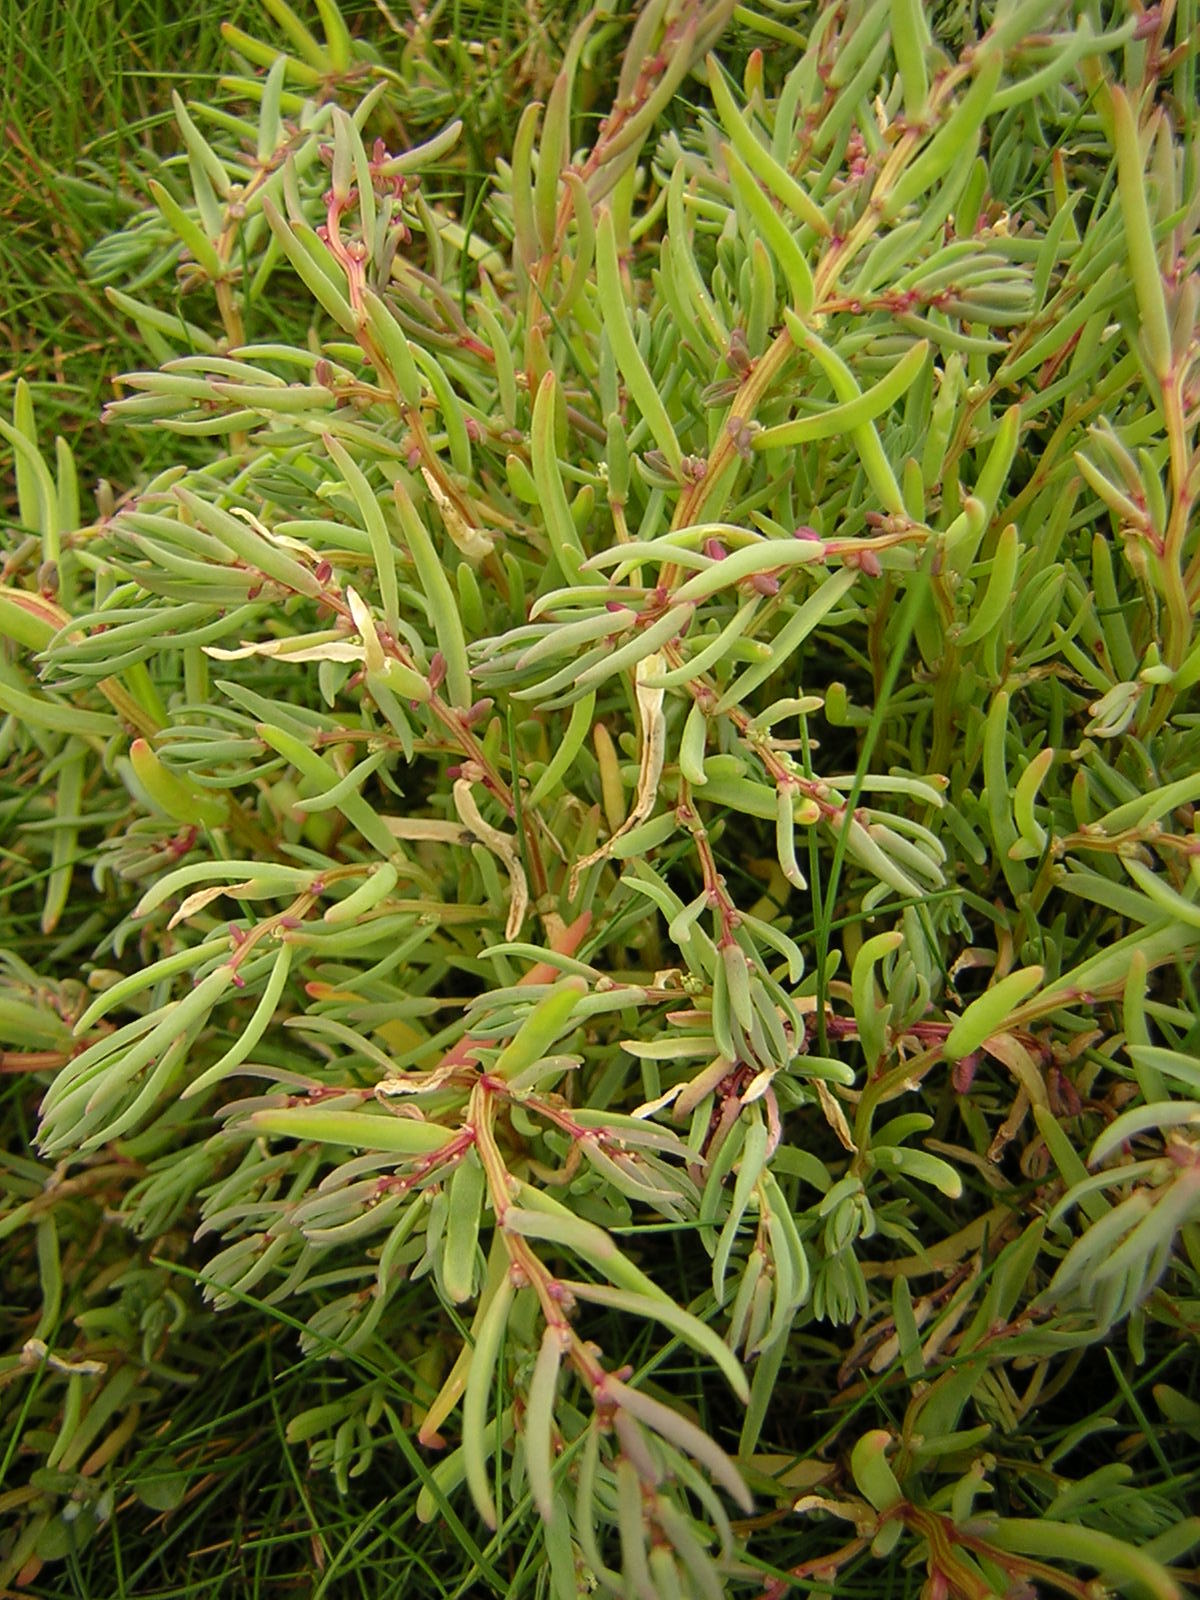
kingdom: Plantae
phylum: Tracheophyta
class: Magnoliopsida
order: Caryophyllales
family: Amaranthaceae
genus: Suaeda
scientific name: Suaeda maritima
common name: Annual sea-blite
